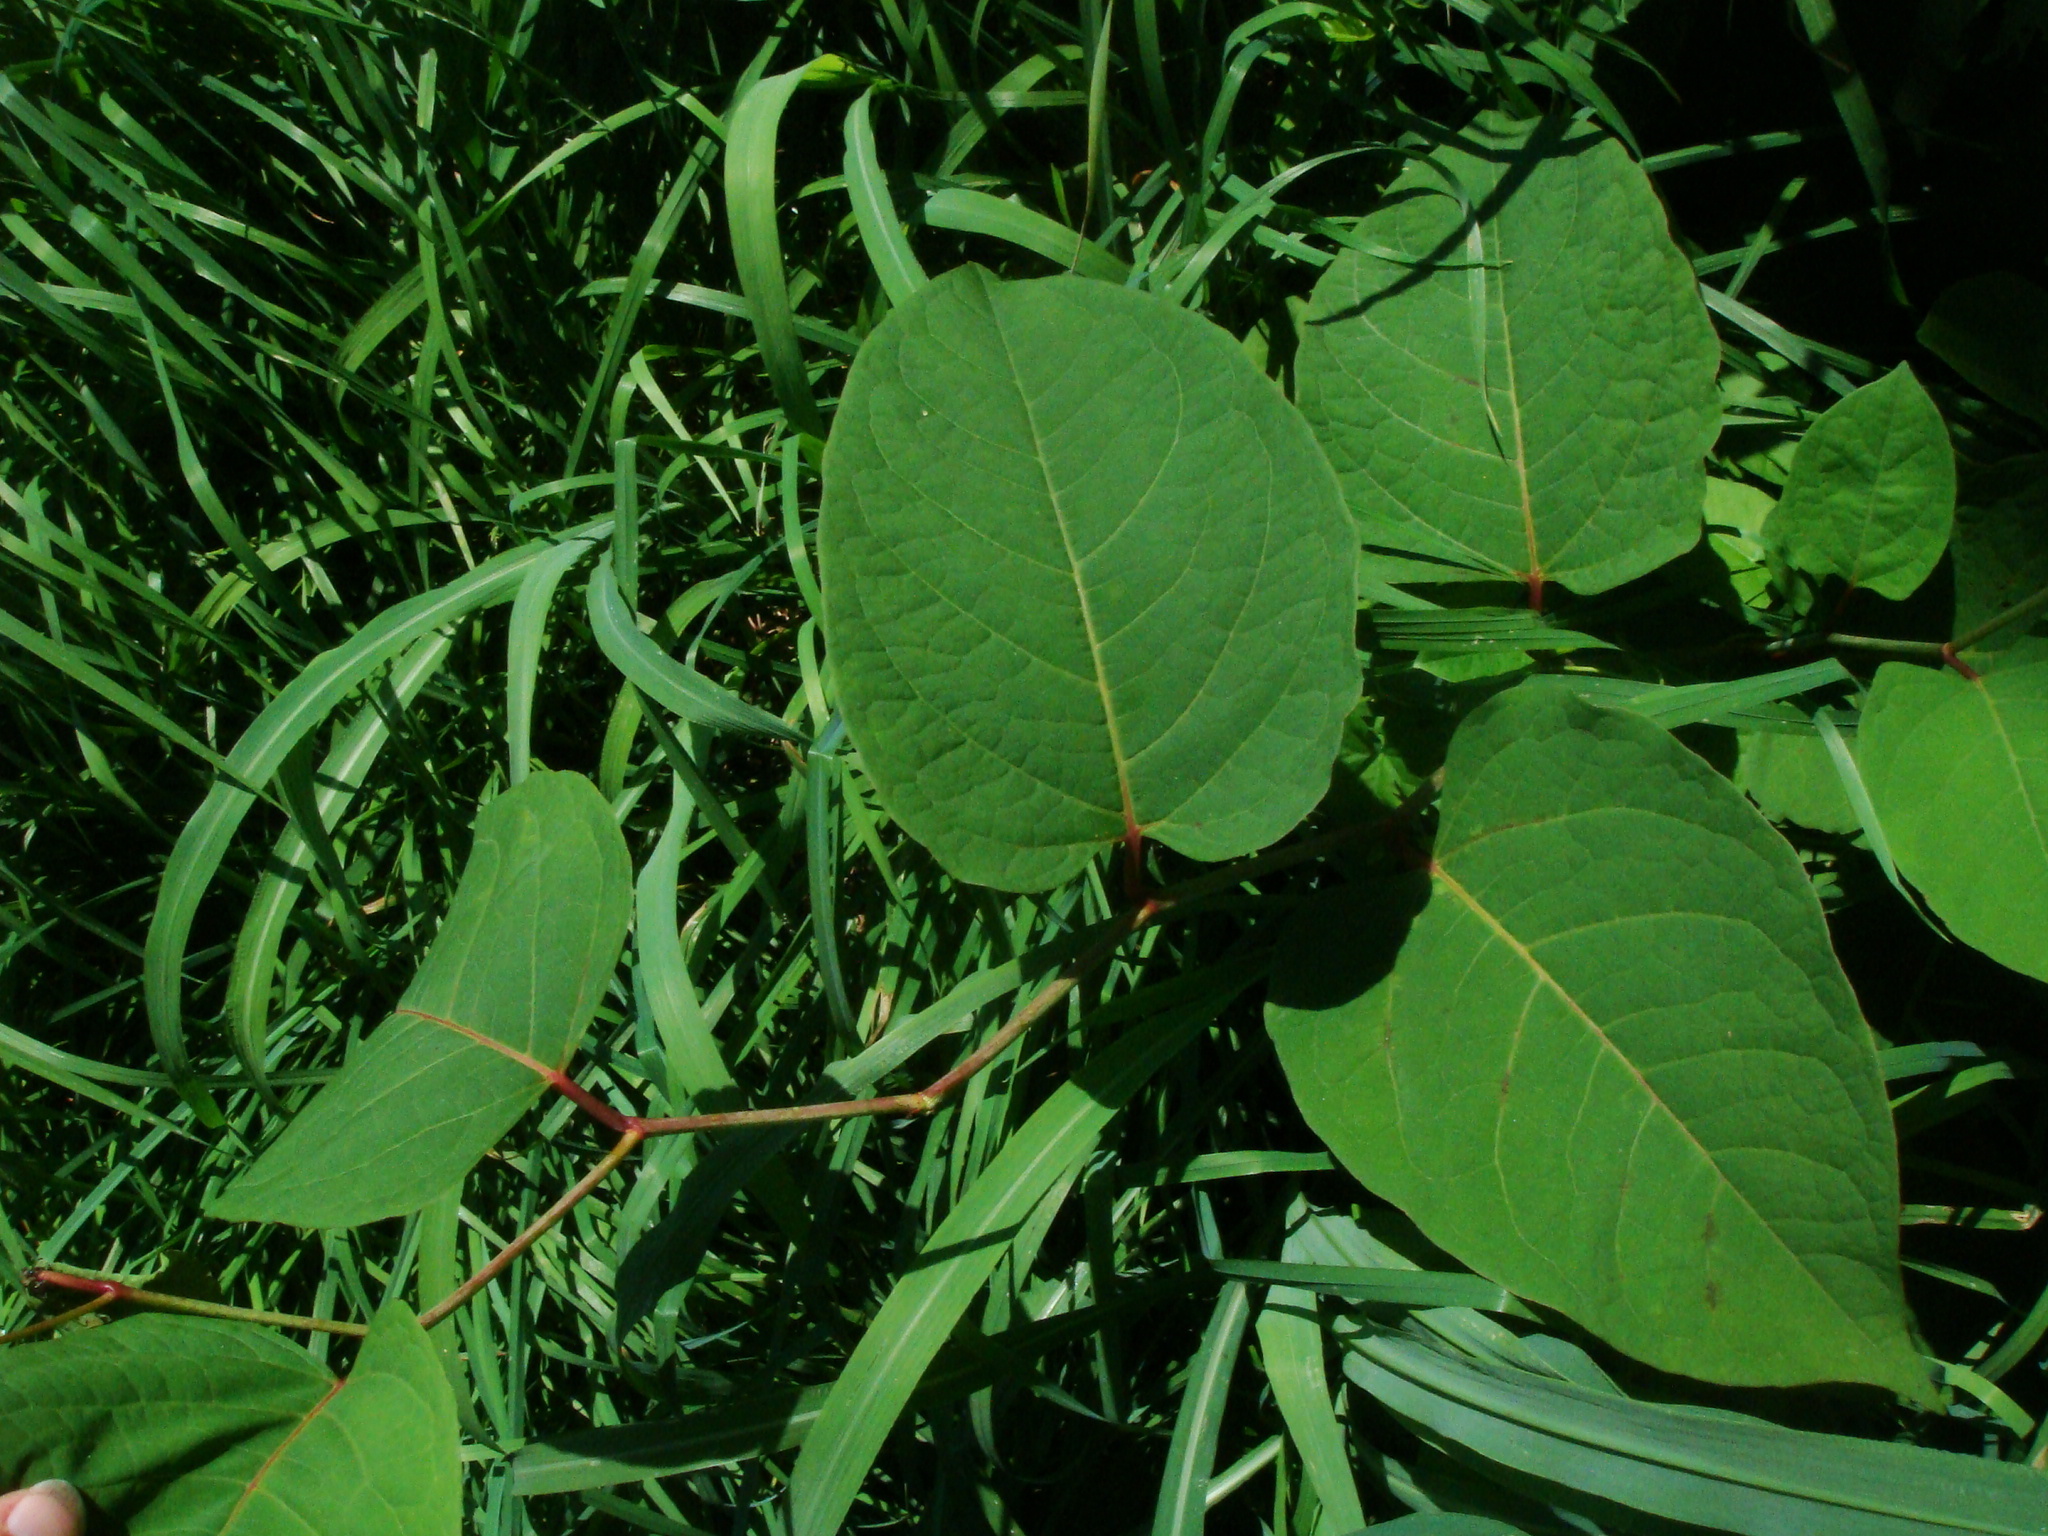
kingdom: Plantae
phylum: Tracheophyta
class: Magnoliopsida
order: Caryophyllales
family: Polygonaceae
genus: Reynoutria
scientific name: Reynoutria bohemica
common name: Bohemian knotweed
